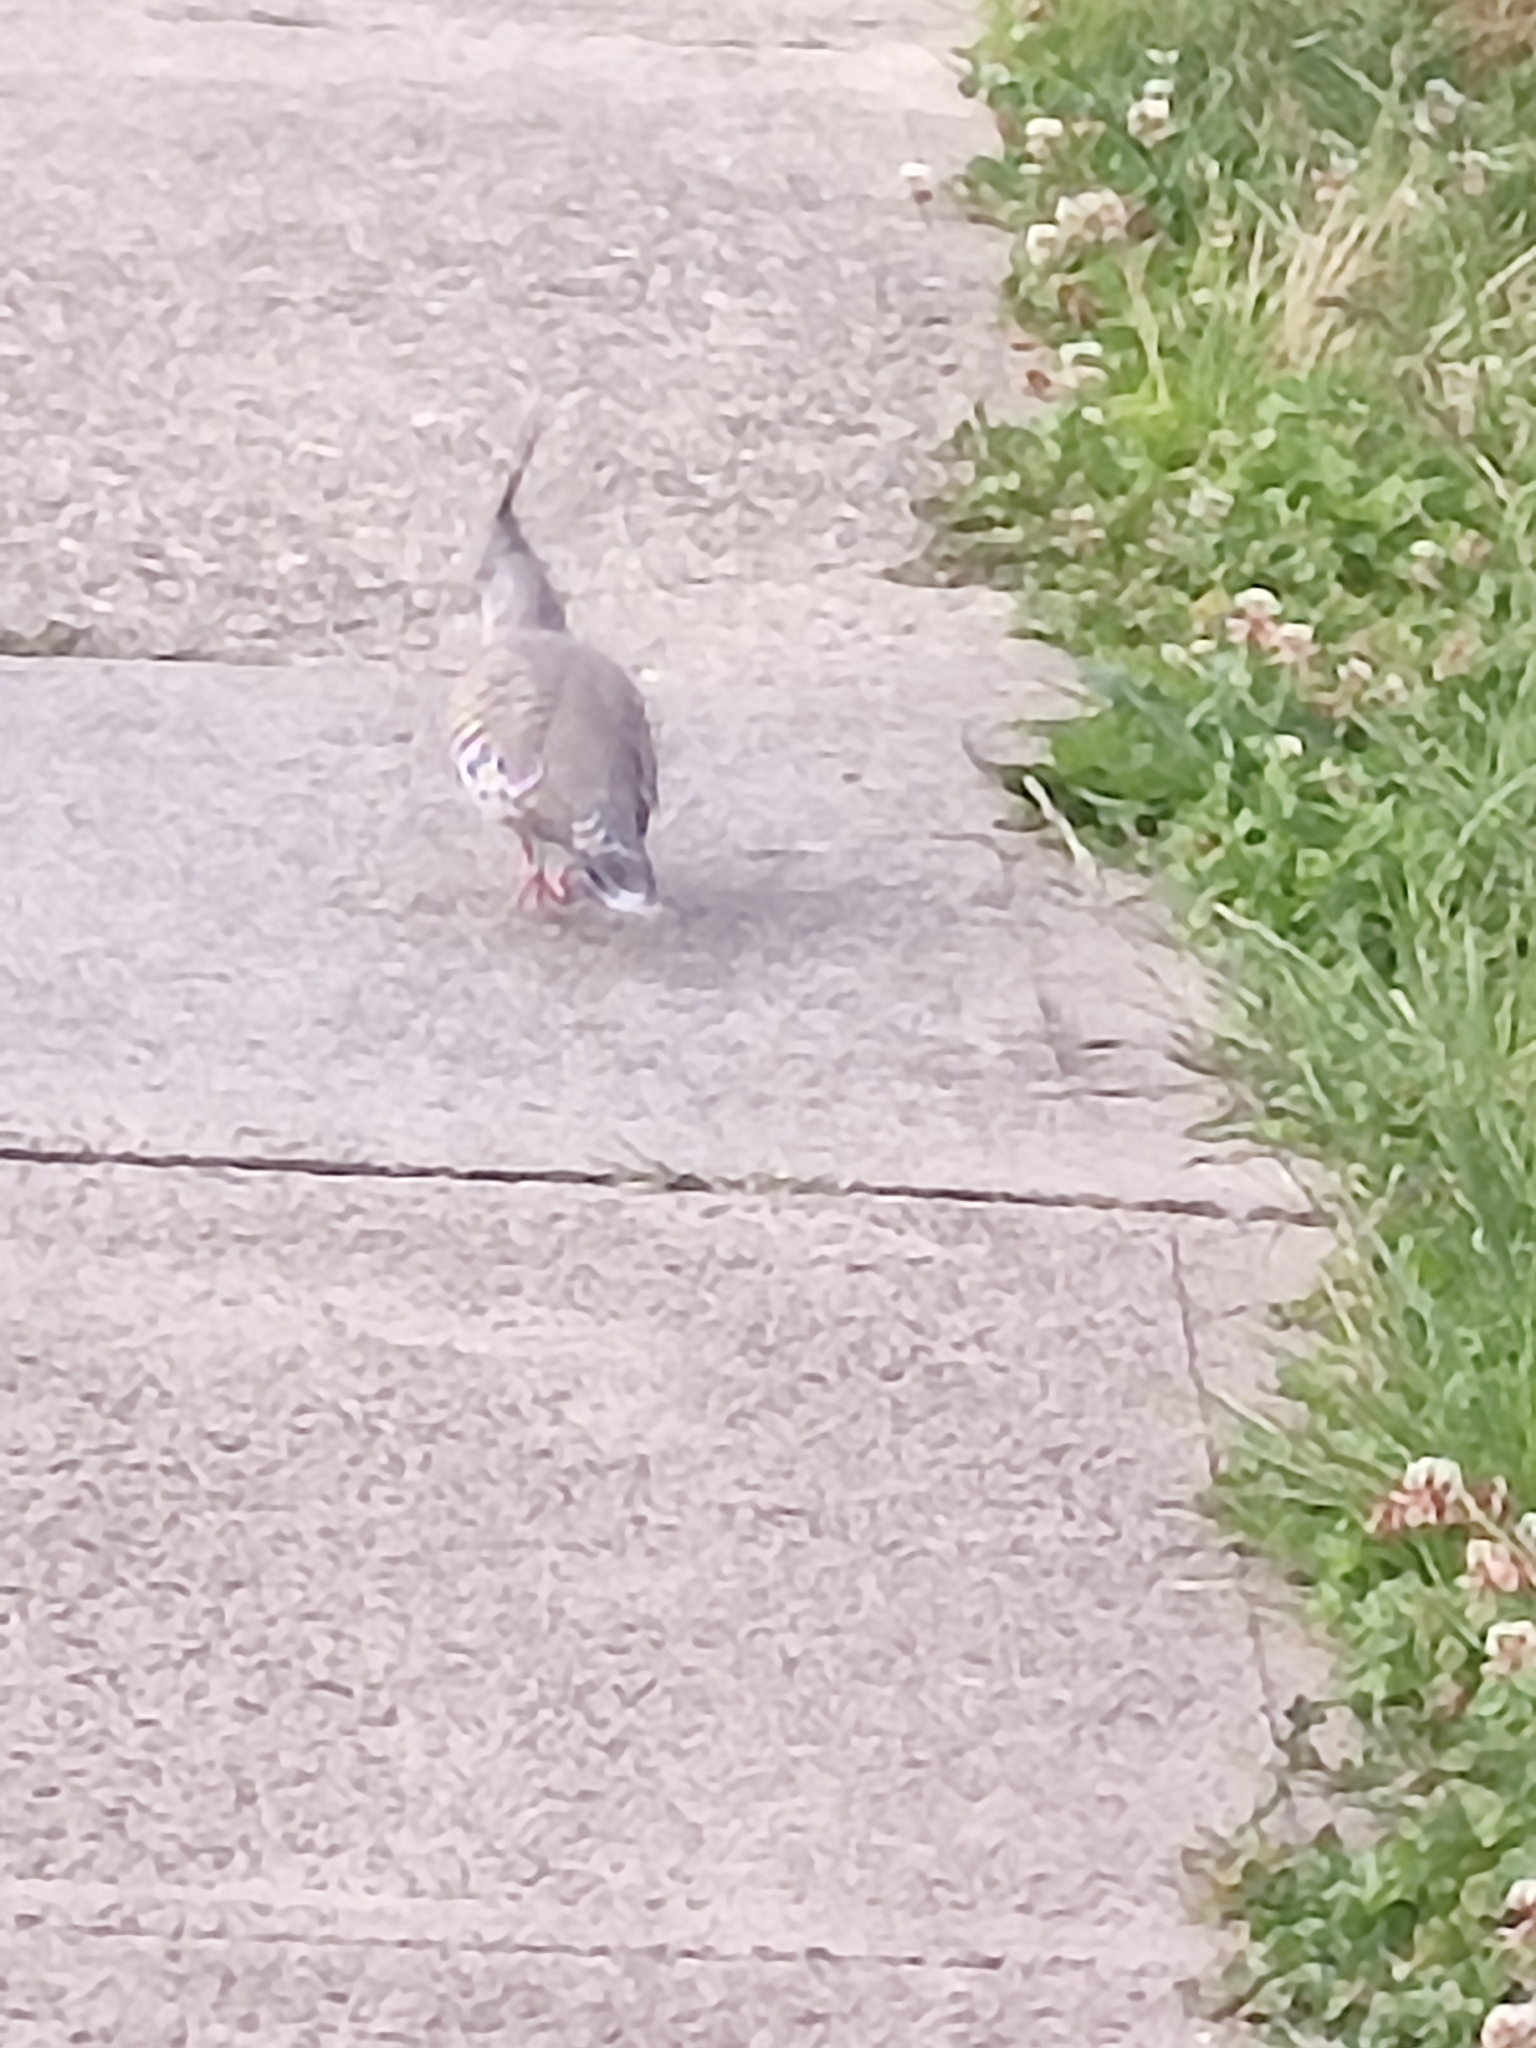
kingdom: Animalia
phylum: Chordata
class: Aves
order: Columbiformes
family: Columbidae
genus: Ocyphaps
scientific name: Ocyphaps lophotes
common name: Crested pigeon
